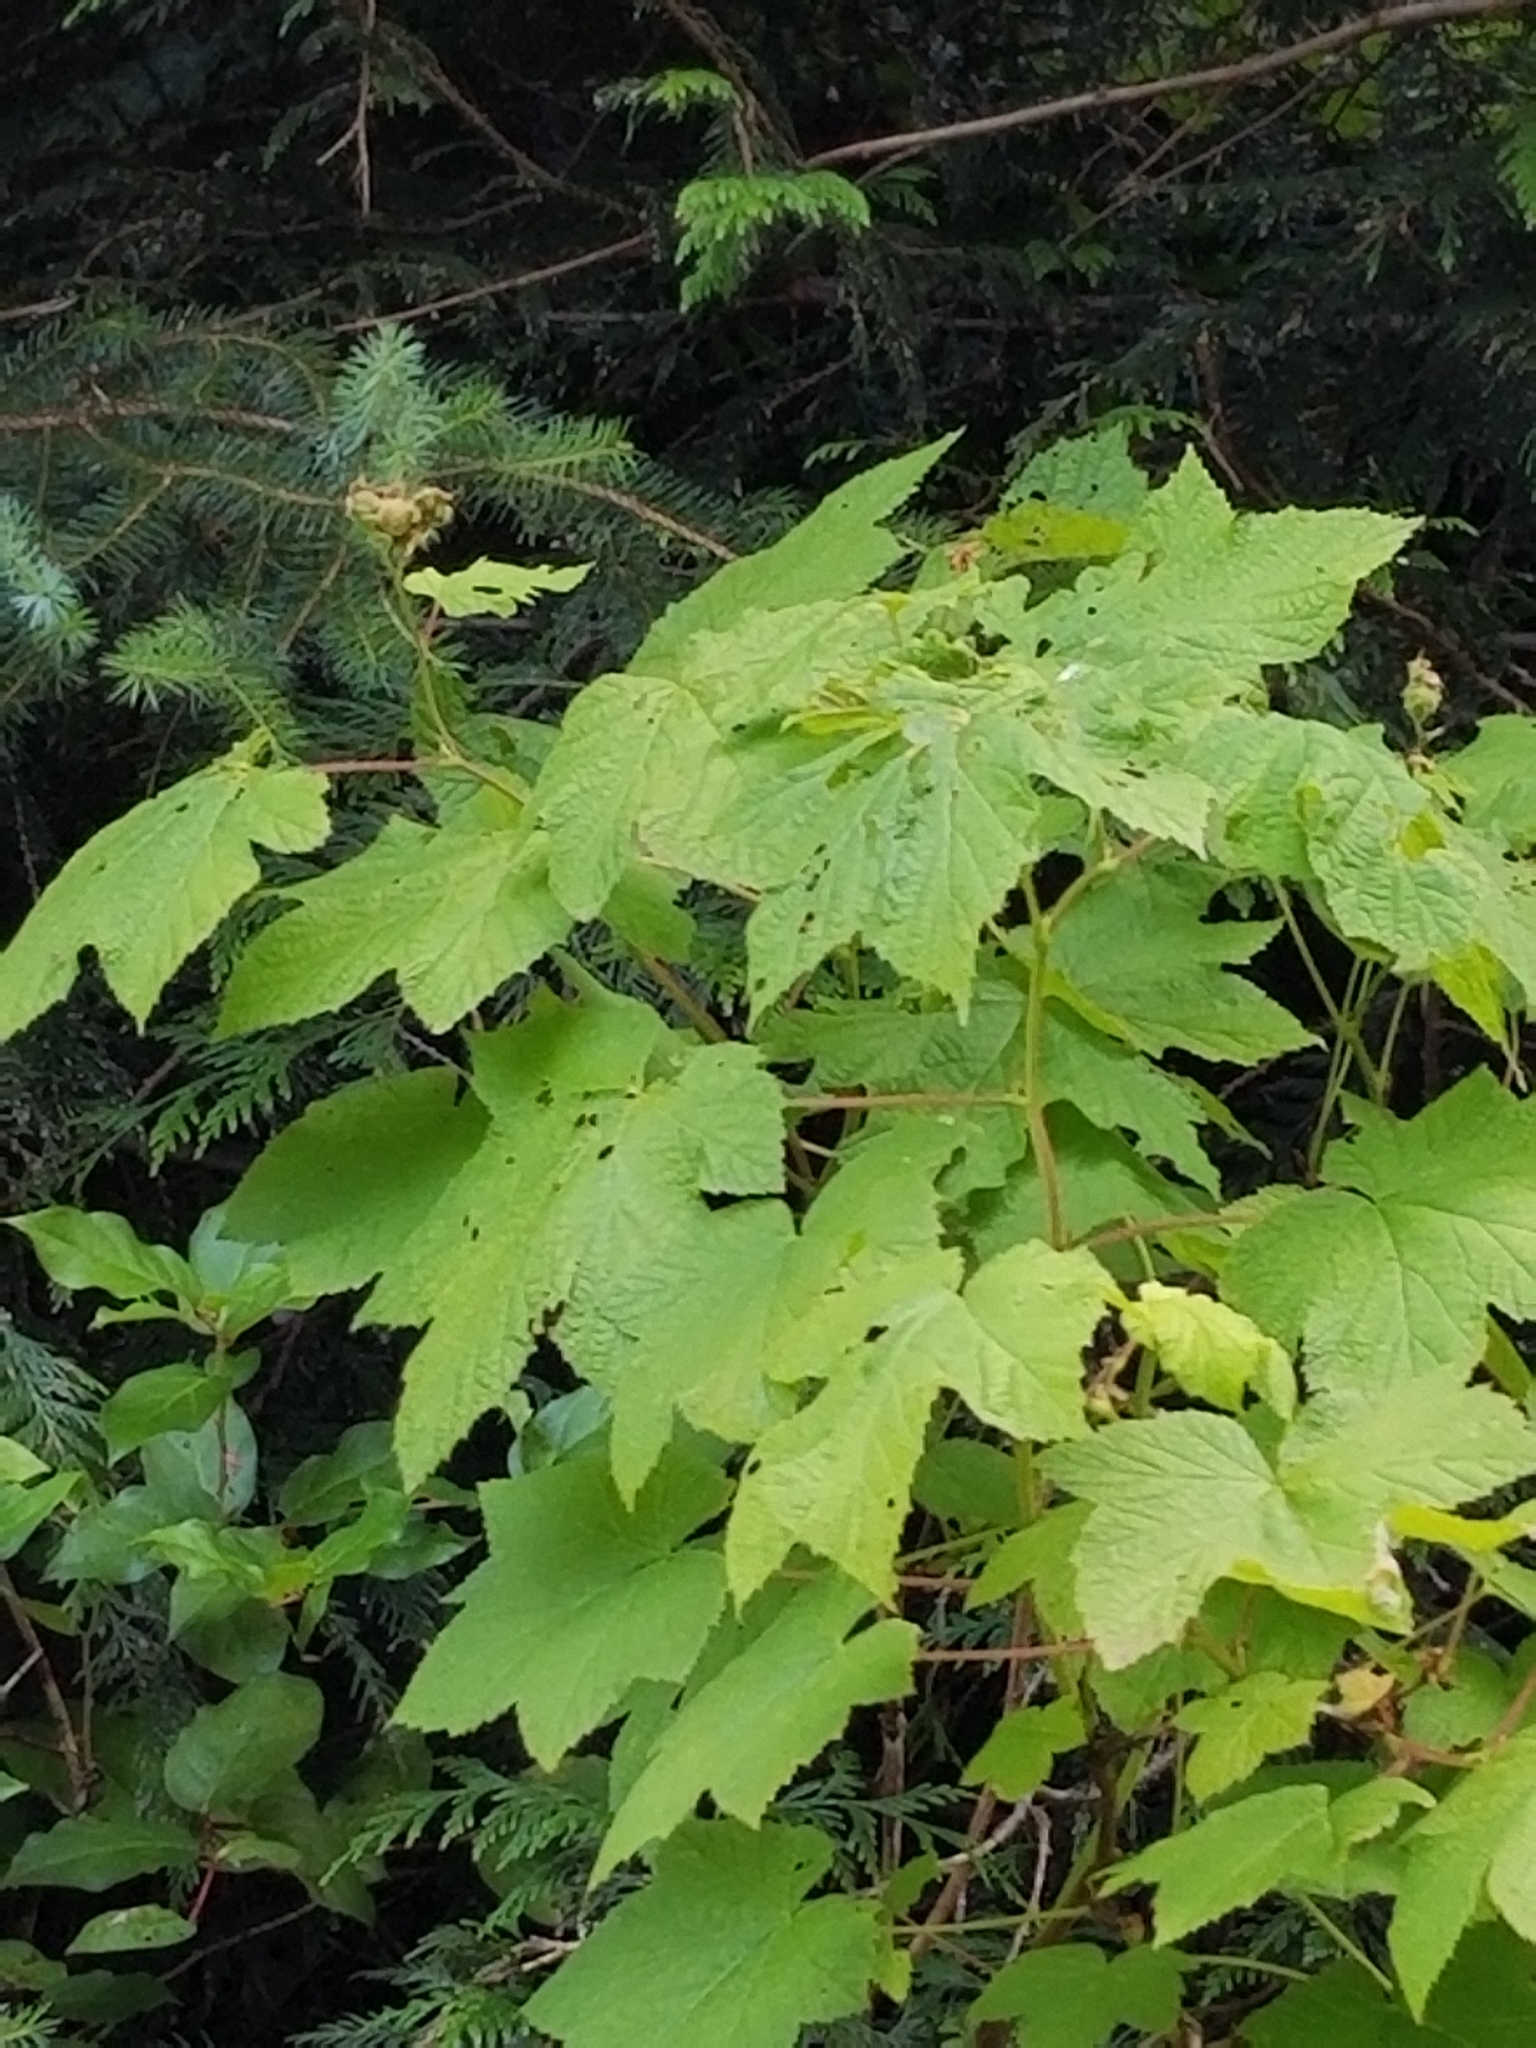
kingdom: Plantae
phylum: Tracheophyta
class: Magnoliopsida
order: Rosales
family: Rosaceae
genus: Rubus
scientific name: Rubus parviflorus
